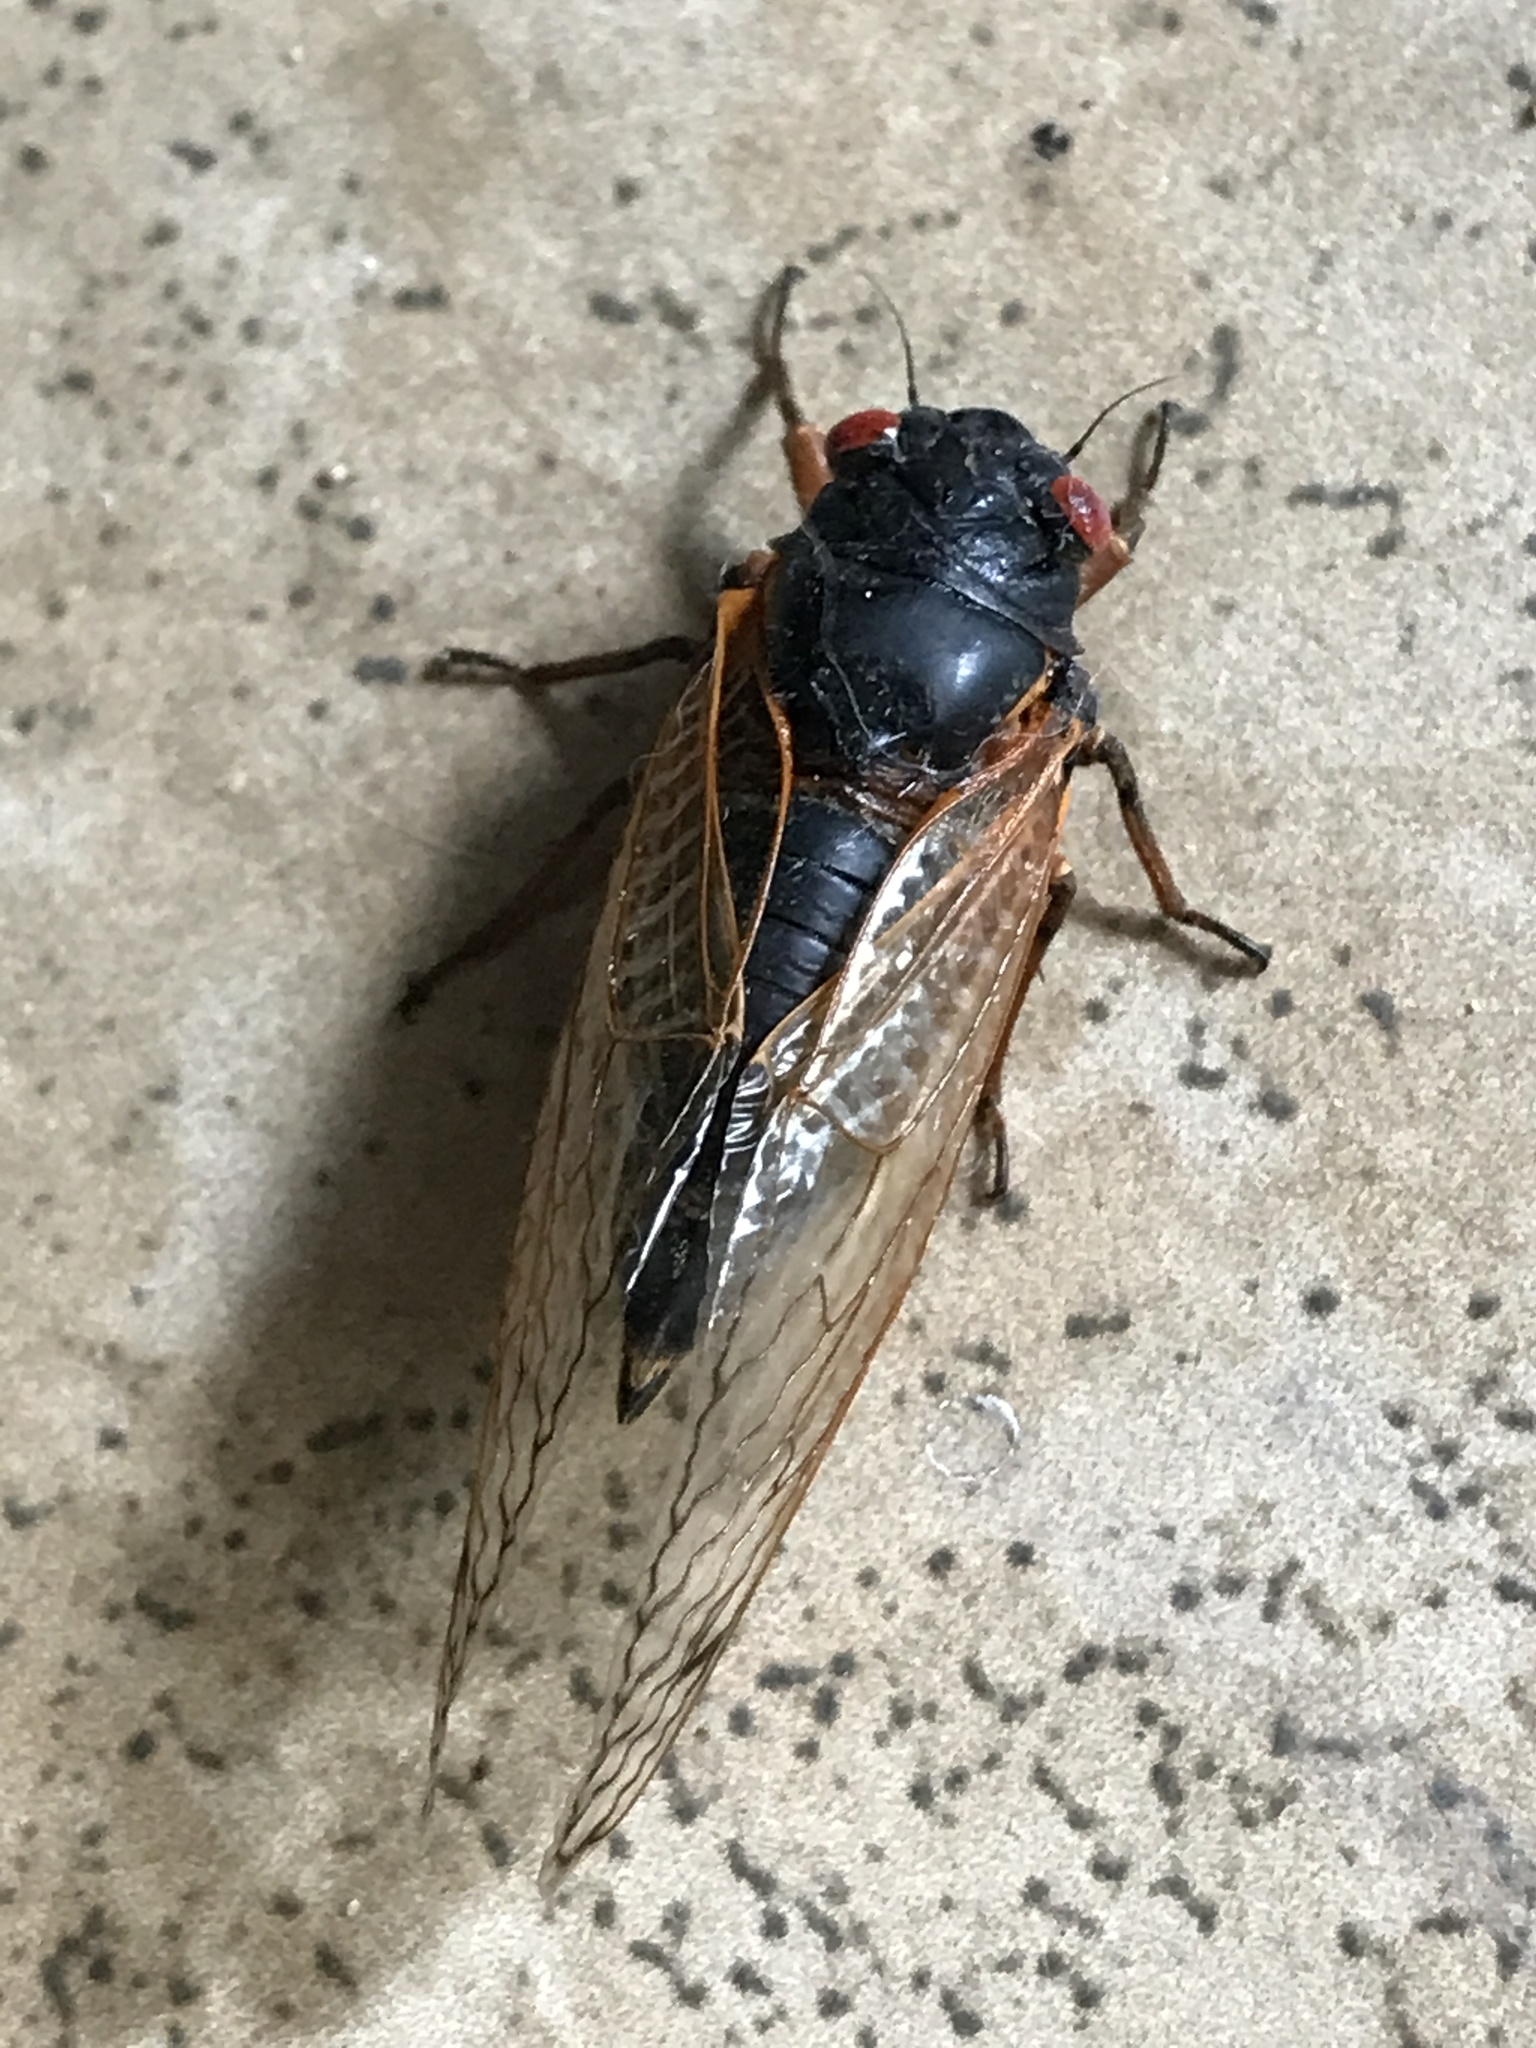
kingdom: Animalia
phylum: Arthropoda
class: Insecta
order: Hemiptera
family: Cicadidae
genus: Magicicada
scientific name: Magicicada
